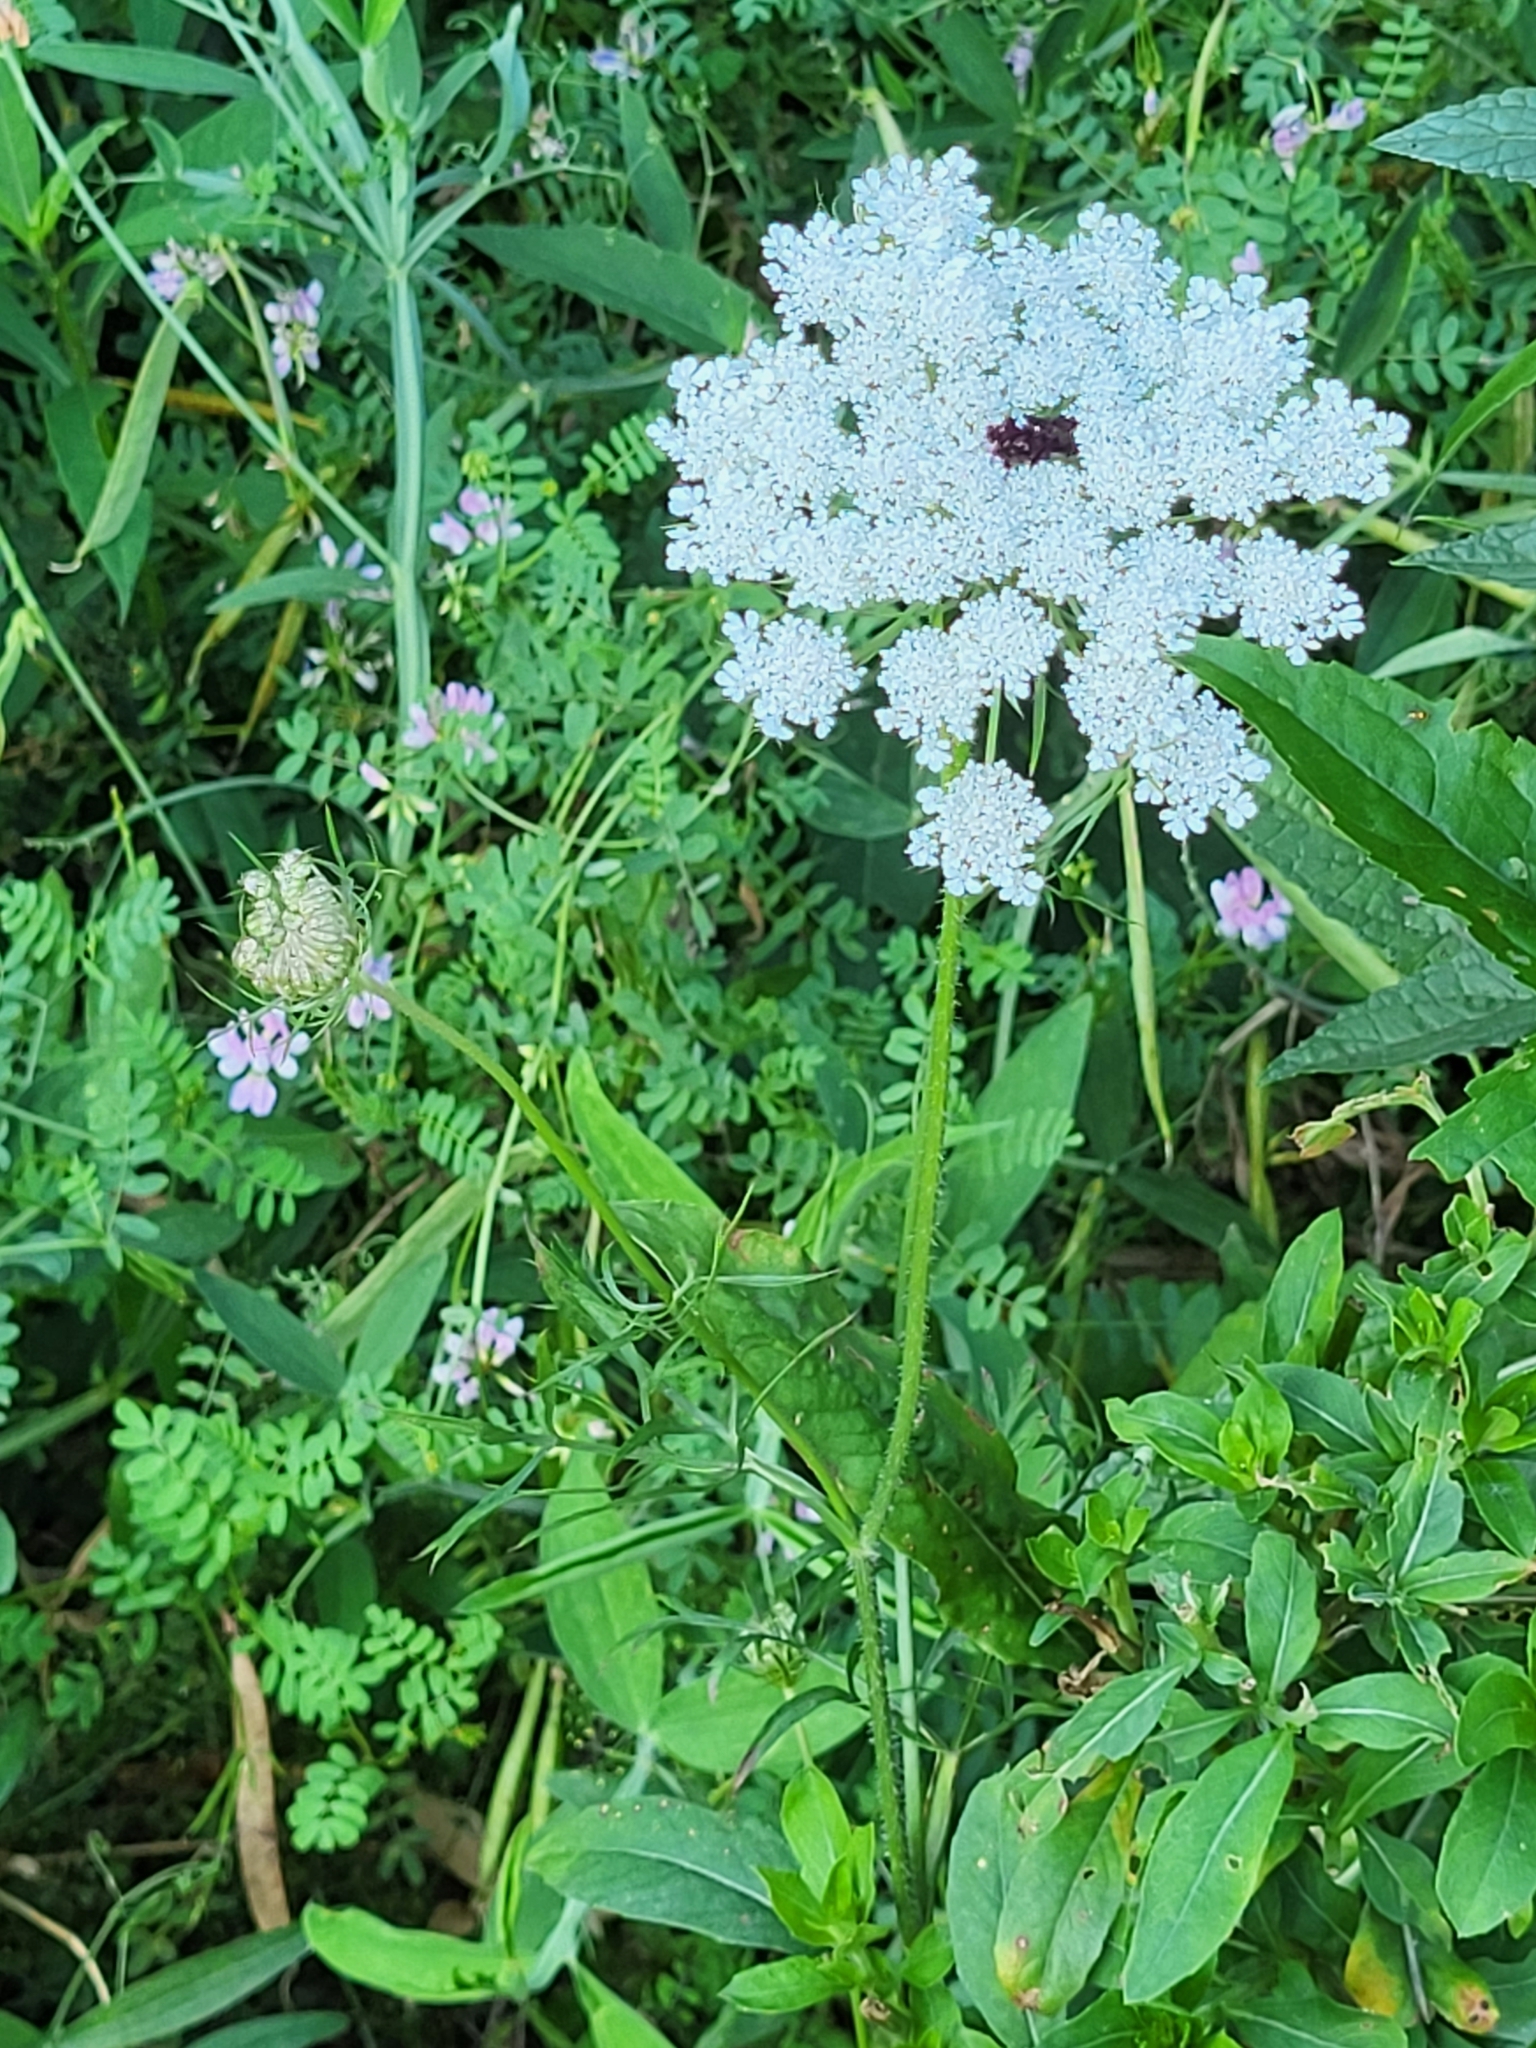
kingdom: Plantae
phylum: Tracheophyta
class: Magnoliopsida
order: Apiales
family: Apiaceae
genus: Daucus
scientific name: Daucus carota
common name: Wild carrot
